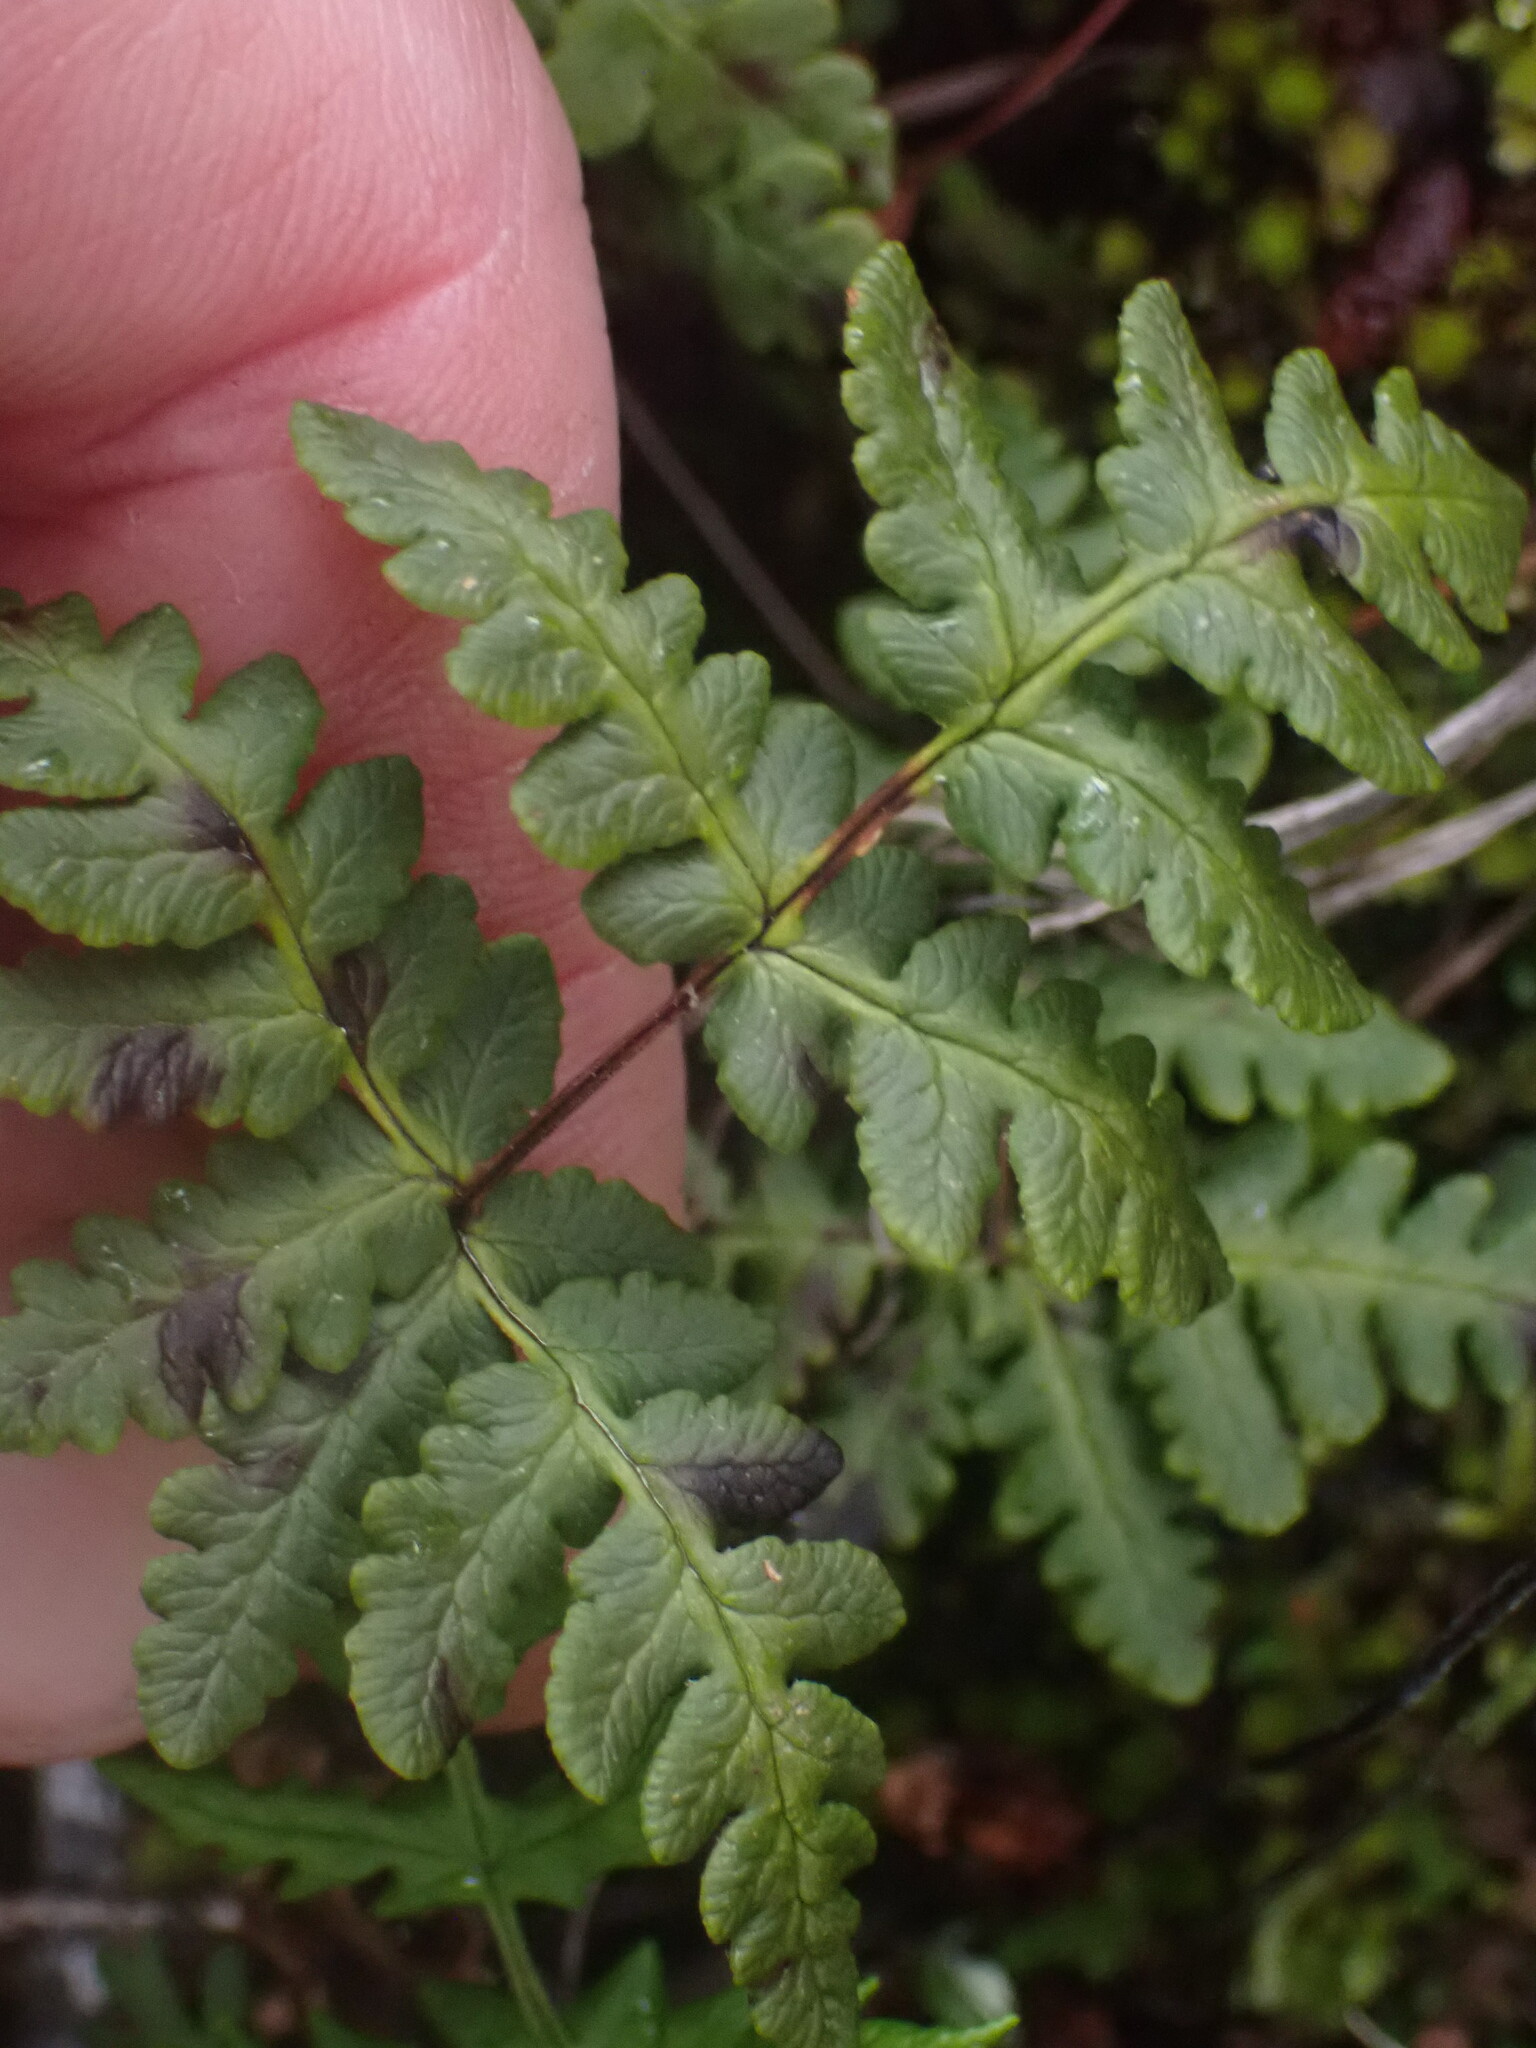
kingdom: Plantae
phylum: Tracheophyta
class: Polypodiopsida
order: Polypodiales
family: Pteridaceae
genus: Pentagramma
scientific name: Pentagramma triangularis
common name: Gold fern
